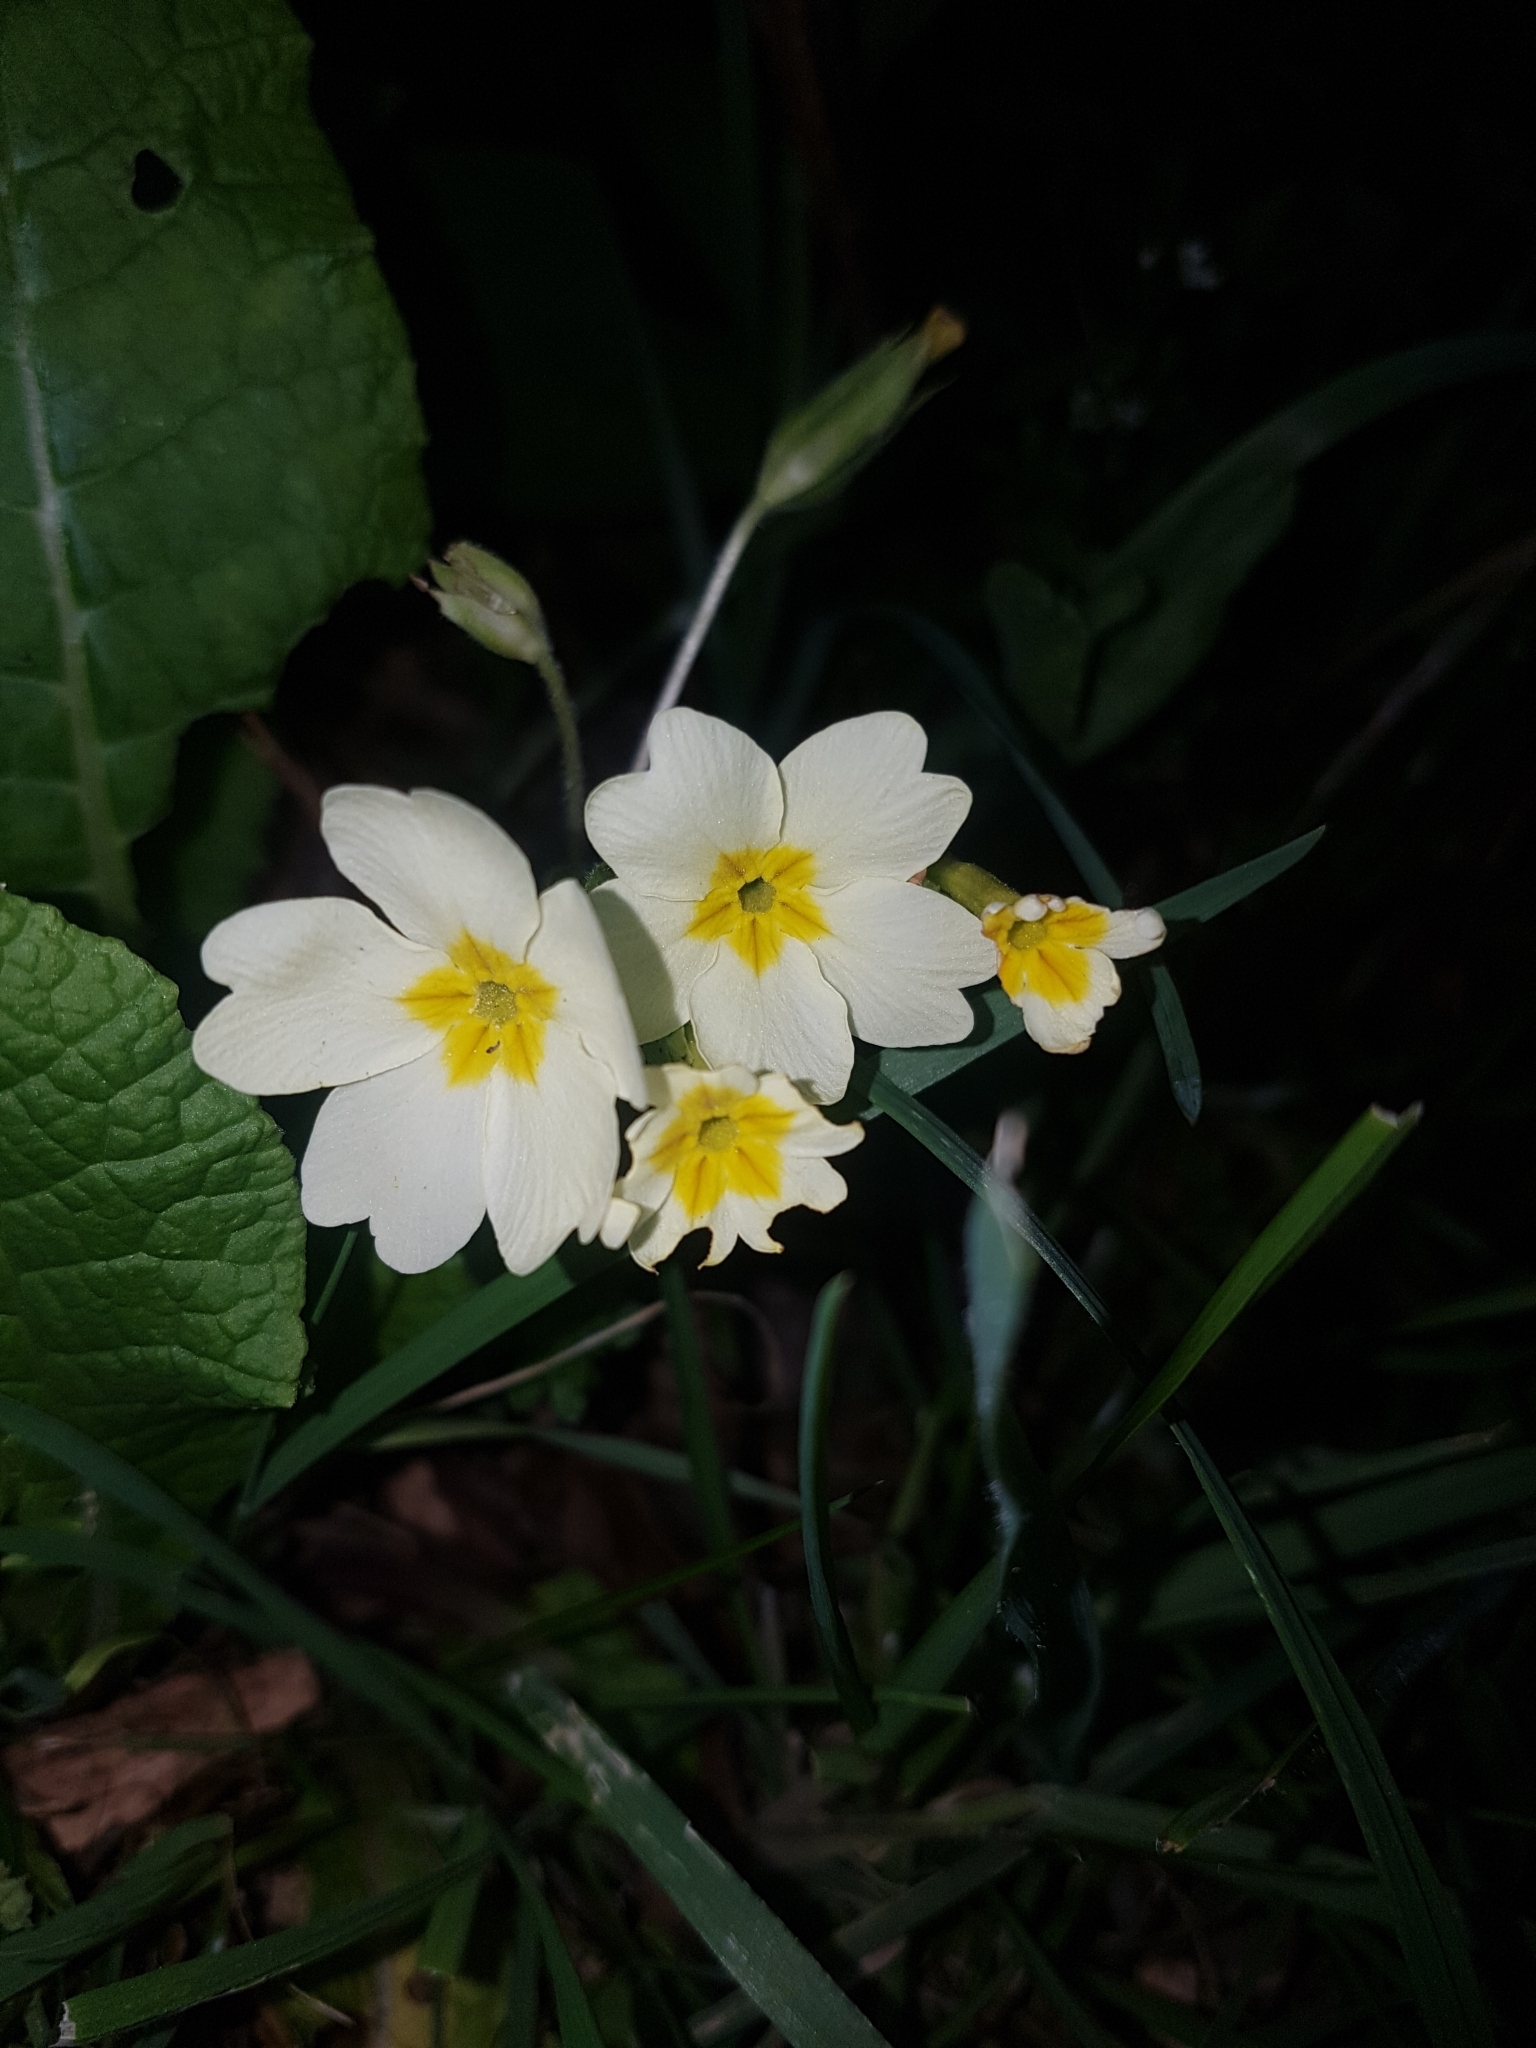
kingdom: Plantae
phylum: Tracheophyta
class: Magnoliopsida
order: Ericales
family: Primulaceae
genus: Primula
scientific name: Primula vulgaris
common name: Primrose
